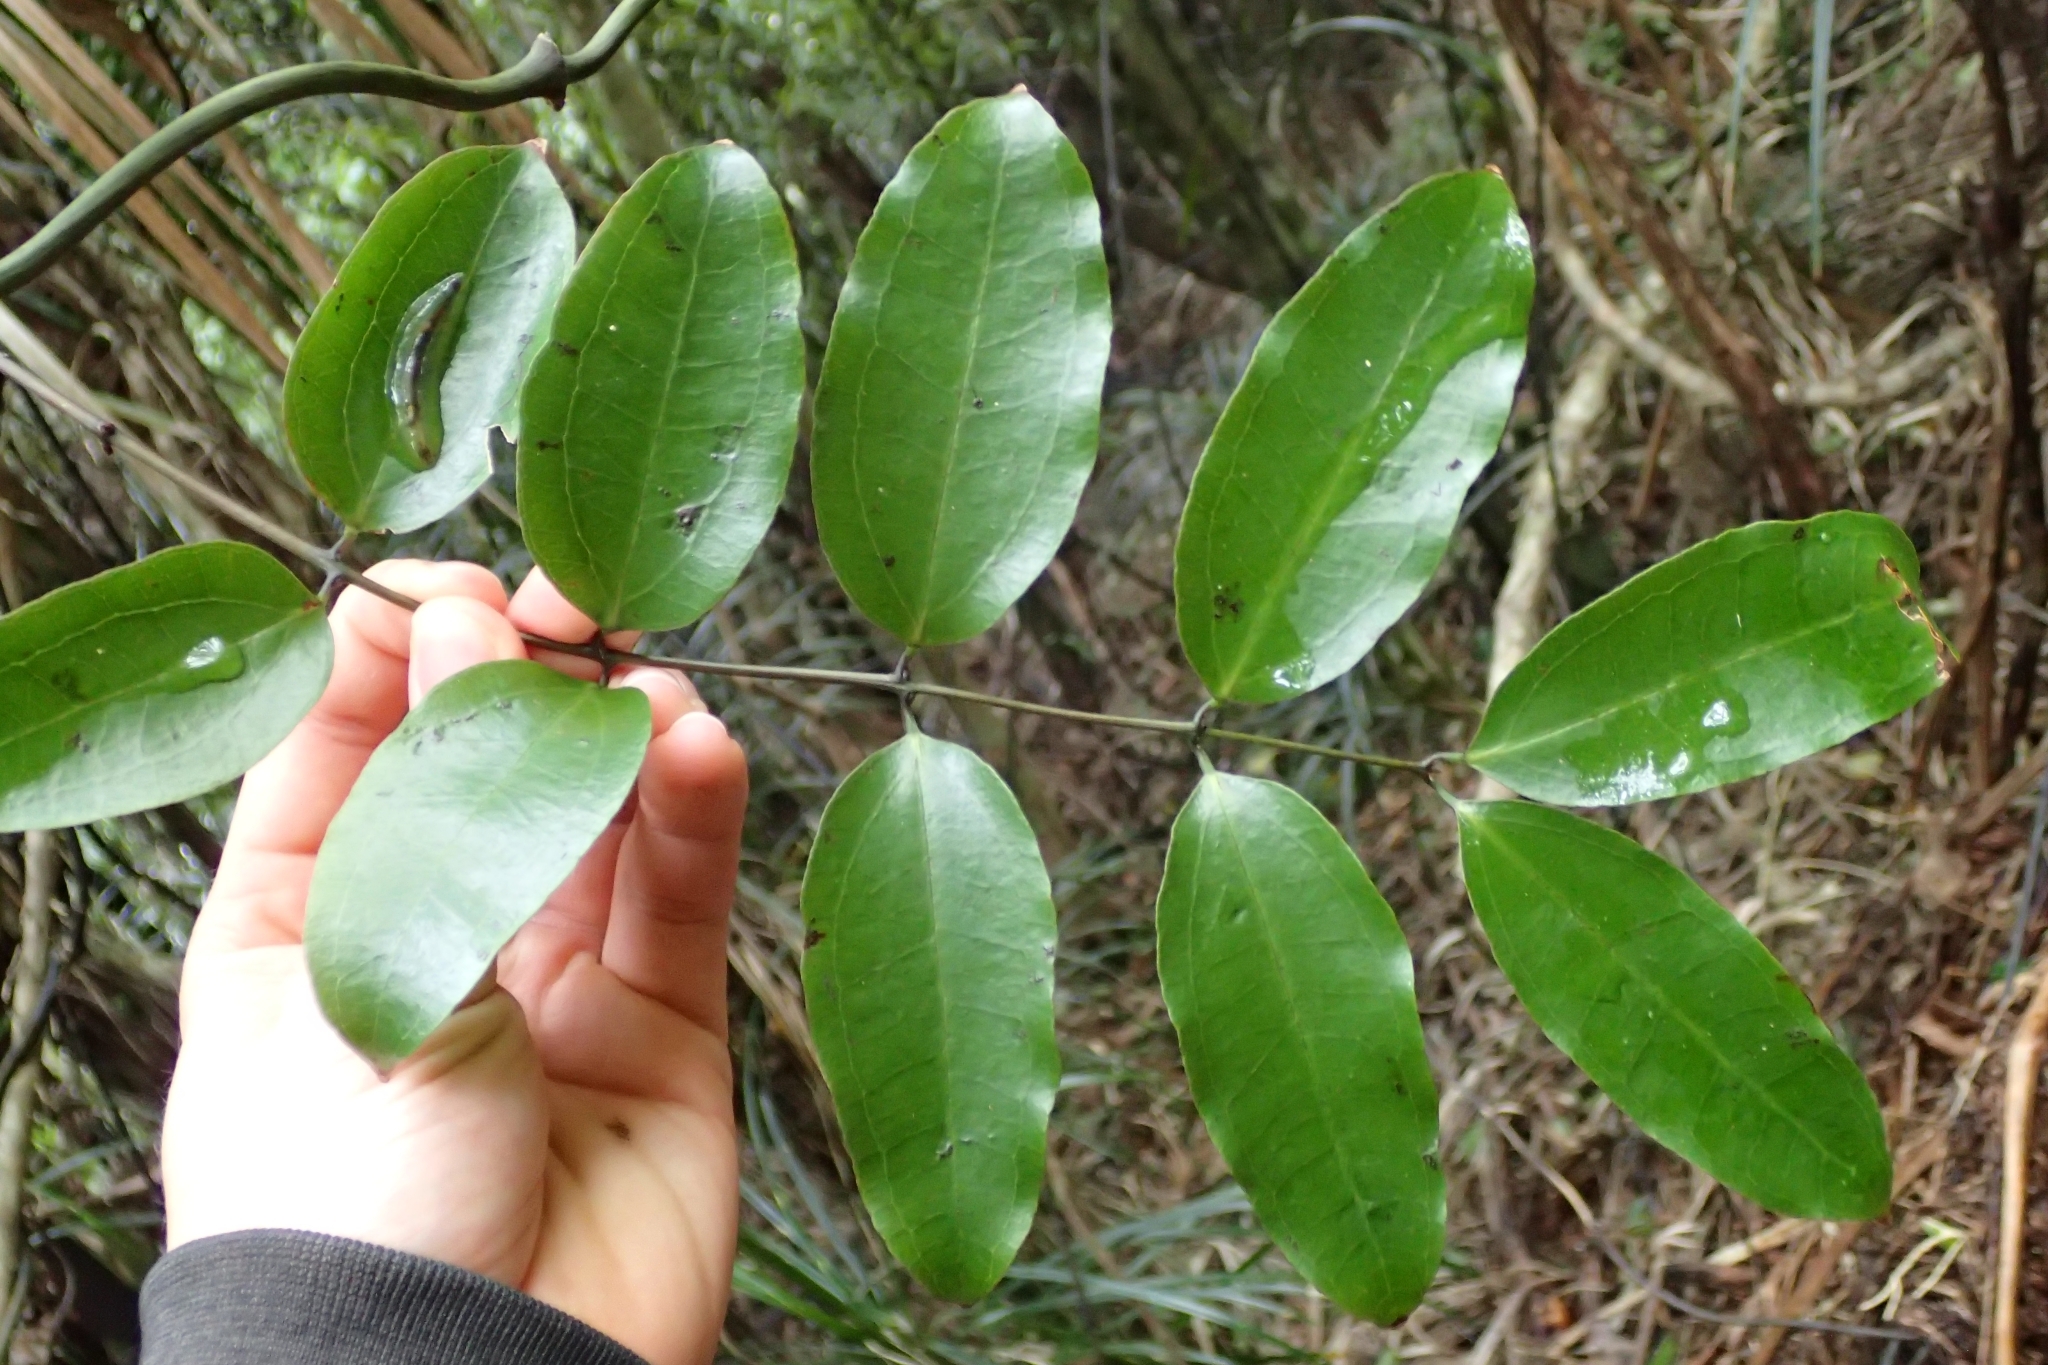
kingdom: Plantae
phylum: Tracheophyta
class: Liliopsida
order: Liliales
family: Ripogonaceae
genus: Ripogonum
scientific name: Ripogonum scandens
